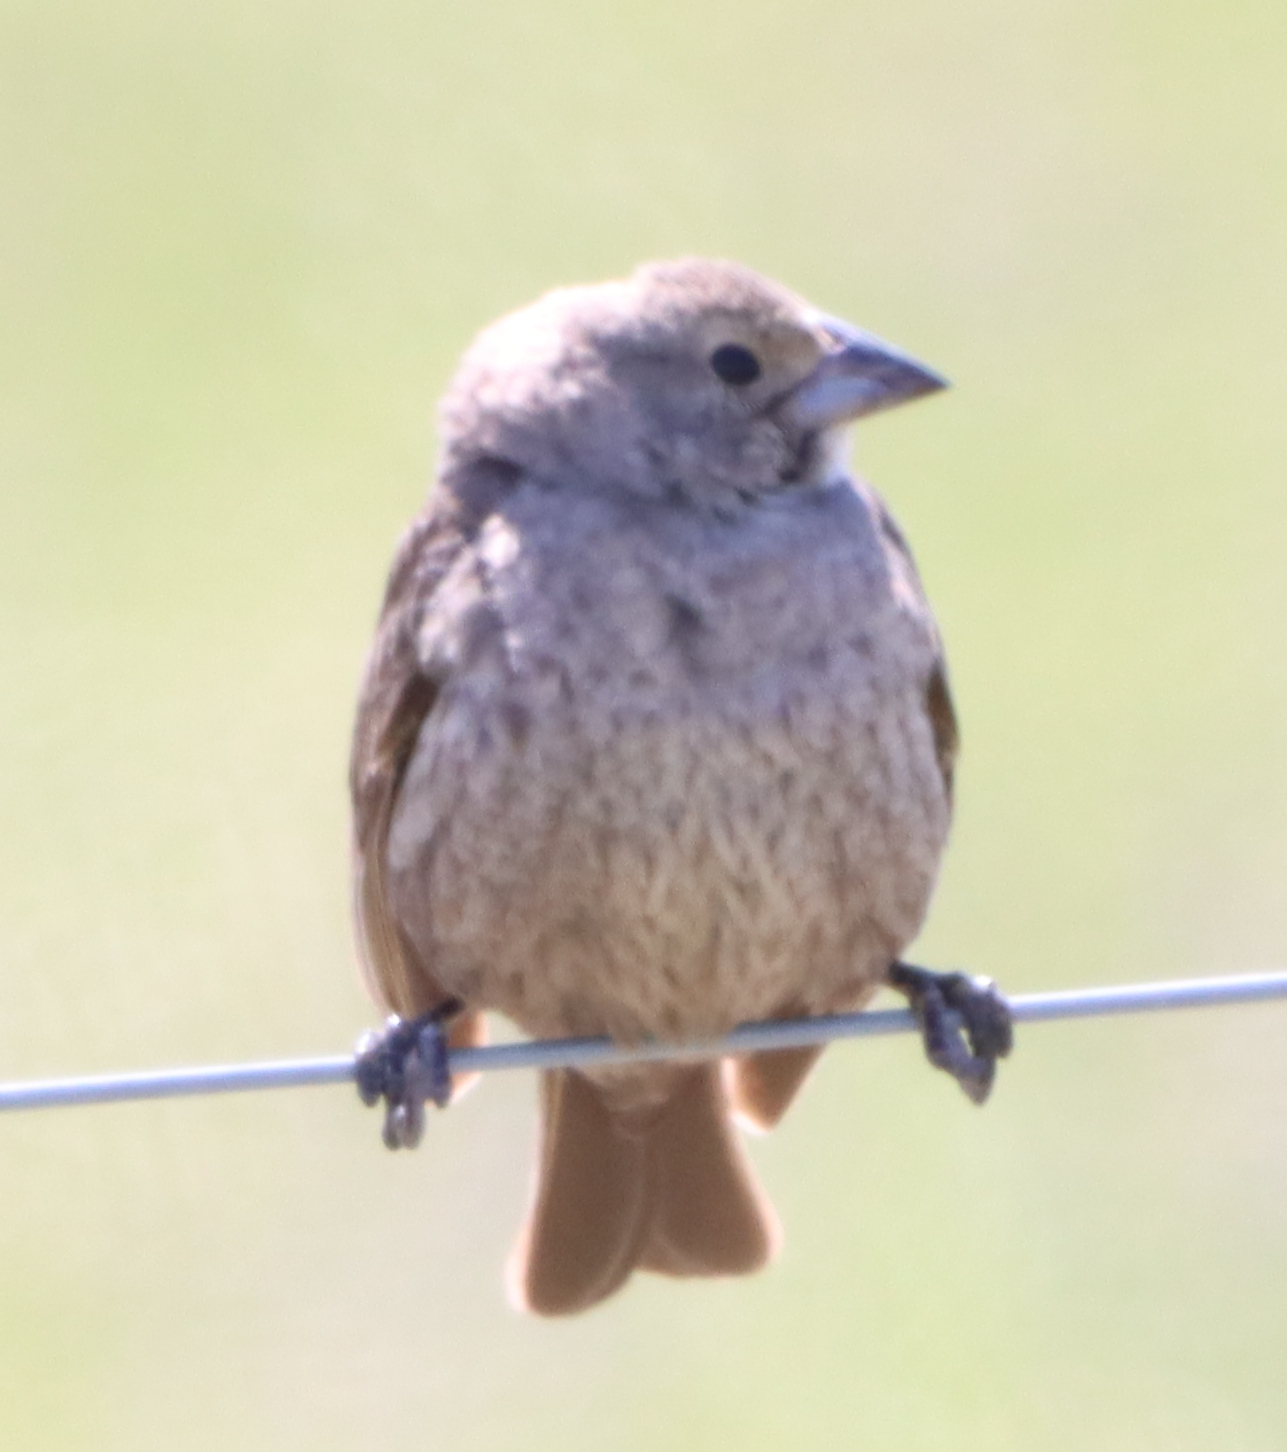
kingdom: Animalia
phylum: Chordata
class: Aves
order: Passeriformes
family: Icteridae
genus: Molothrus
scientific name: Molothrus ater
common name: Brown-headed cowbird
